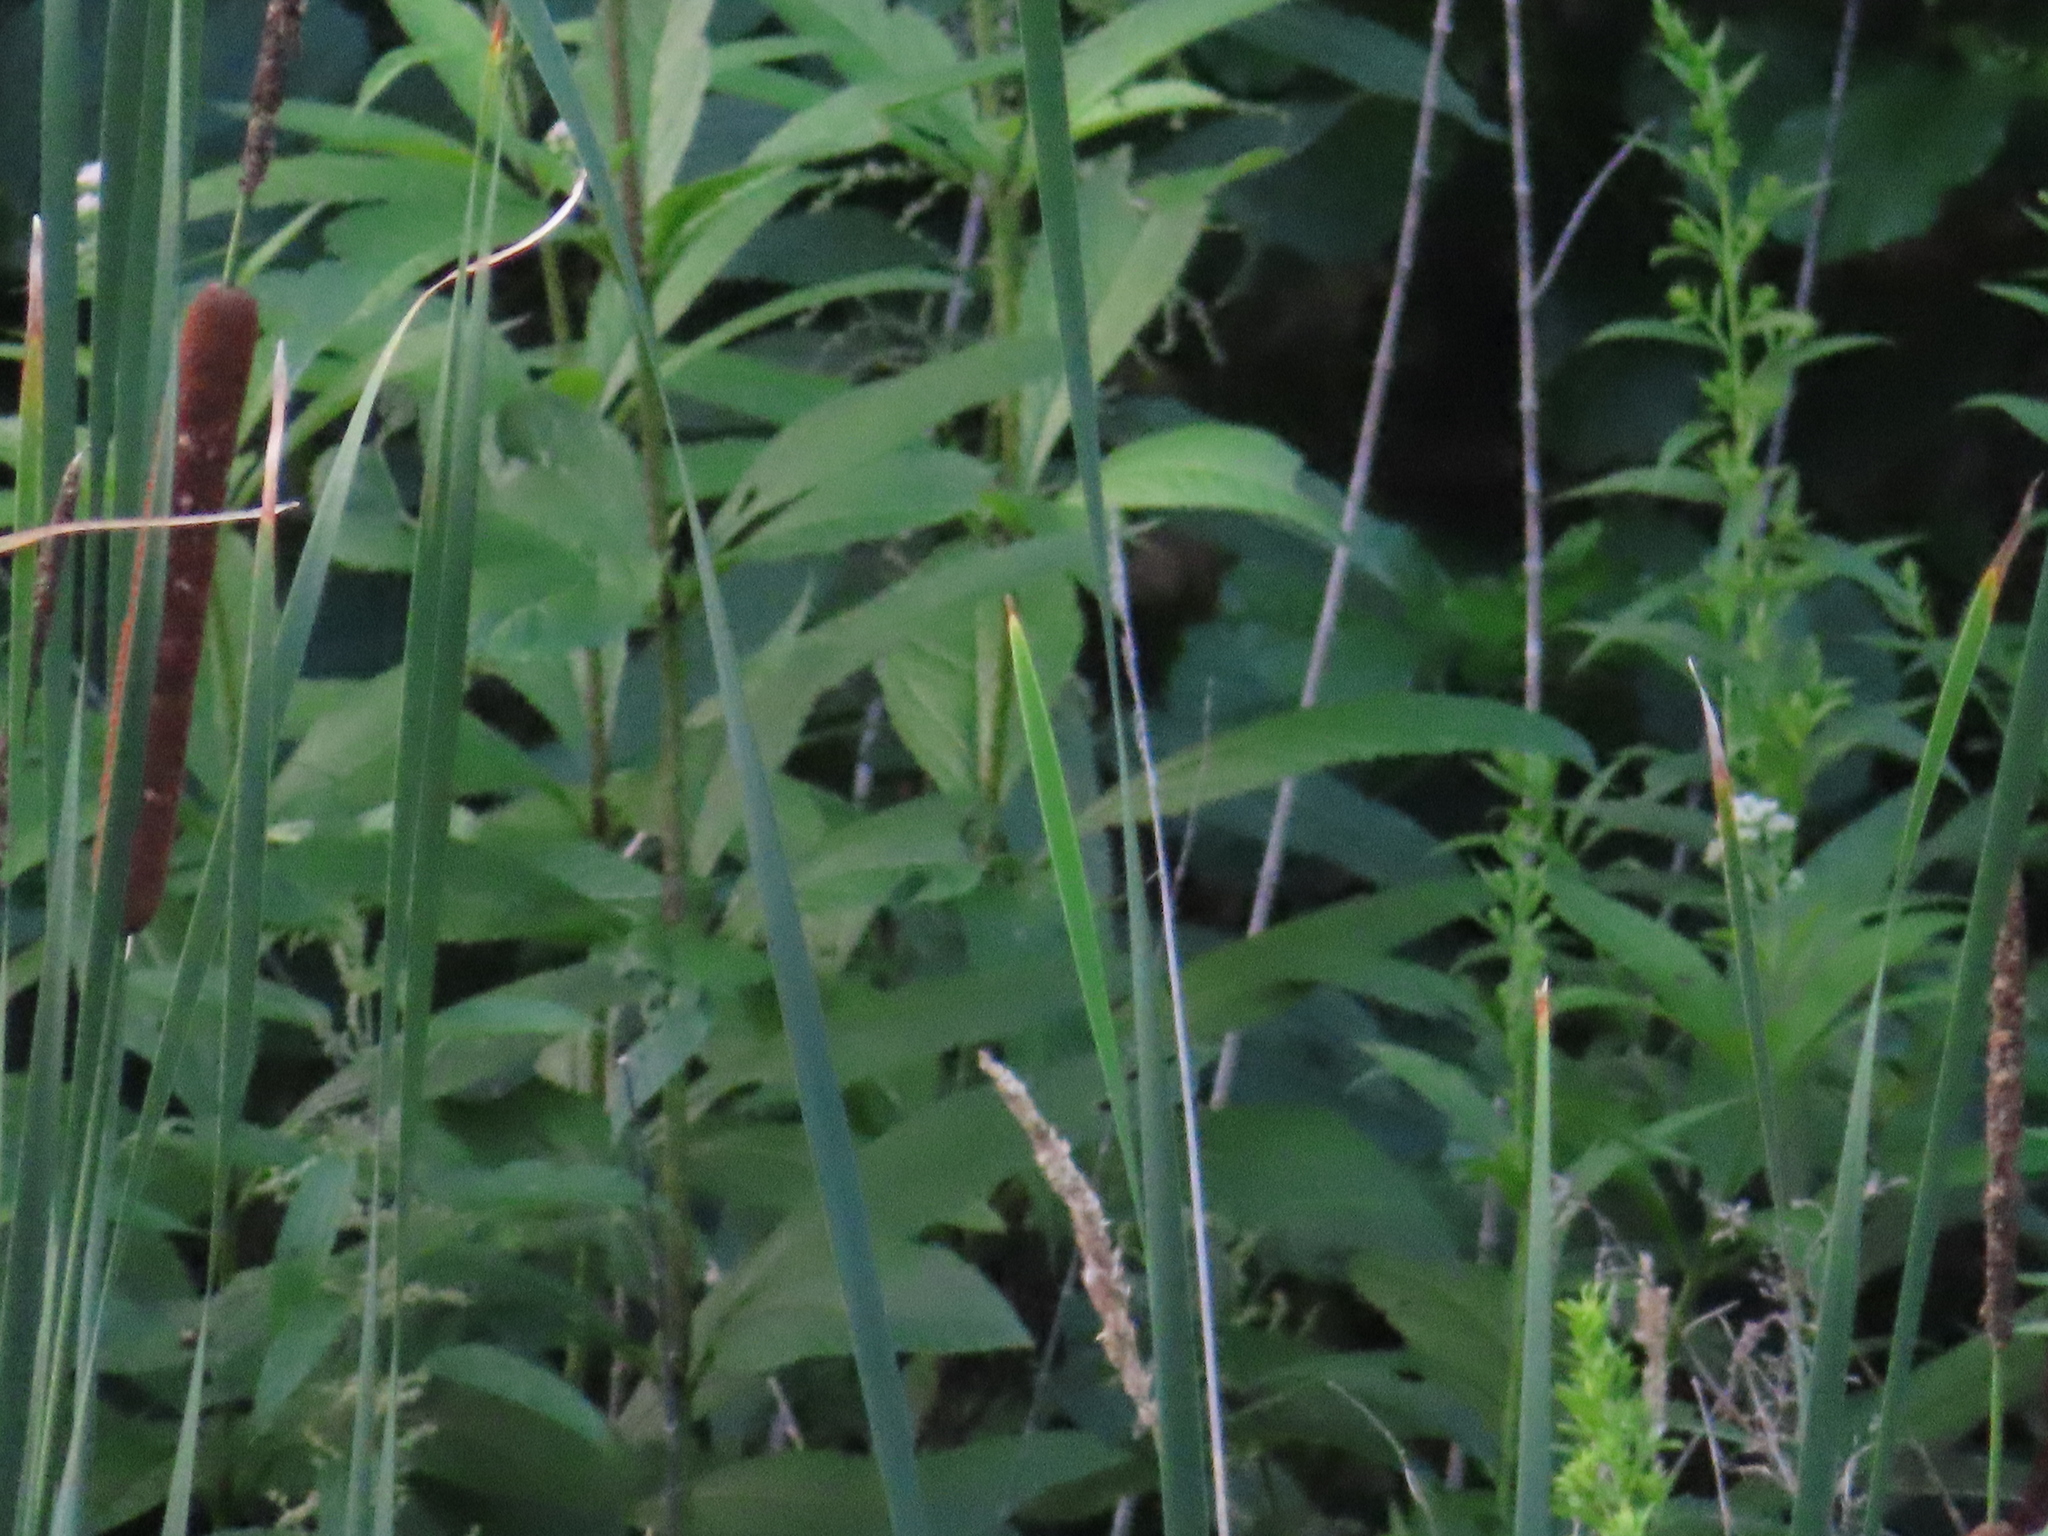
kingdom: Plantae
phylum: Tracheophyta
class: Magnoliopsida
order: Asterales
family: Asteraceae
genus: Eutrochium
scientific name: Eutrochium maculatum
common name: Spotted joe pye weed
